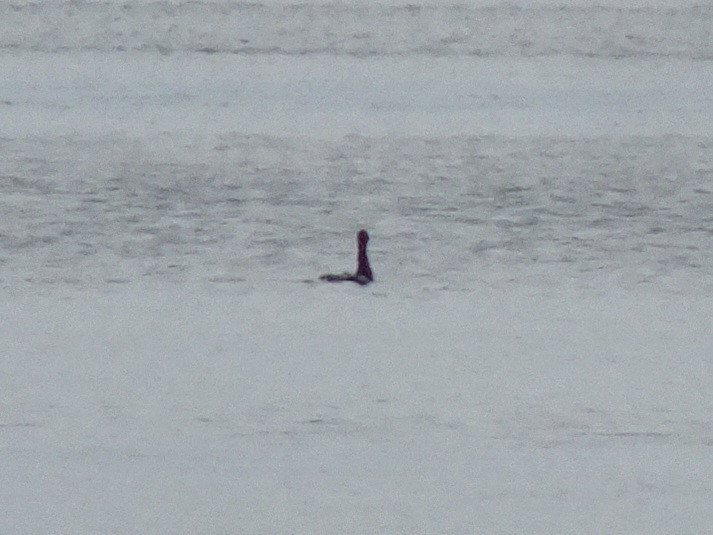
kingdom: Animalia
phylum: Chordata
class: Aves
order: Suliformes
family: Phalacrocoracidae
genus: Phalacrocorax
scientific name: Phalacrocorax auritus
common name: Double-crested cormorant
